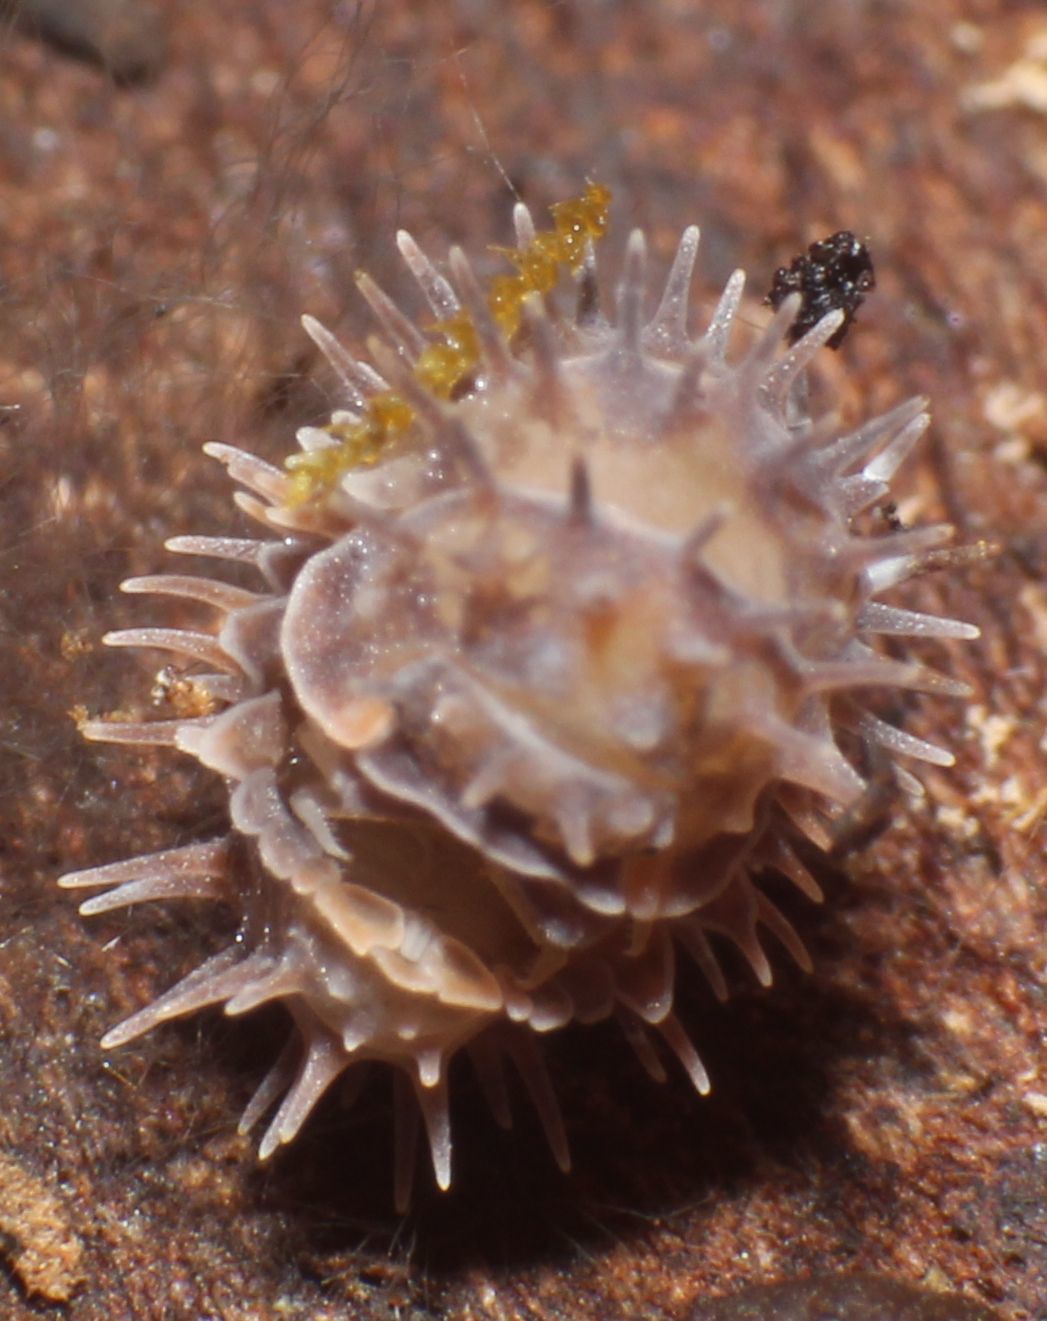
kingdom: Animalia
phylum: Arthropoda
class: Malacostraca
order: Isopoda
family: Armadillidae
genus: Pseudolaureola
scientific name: Pseudolaureola wilsmorei
